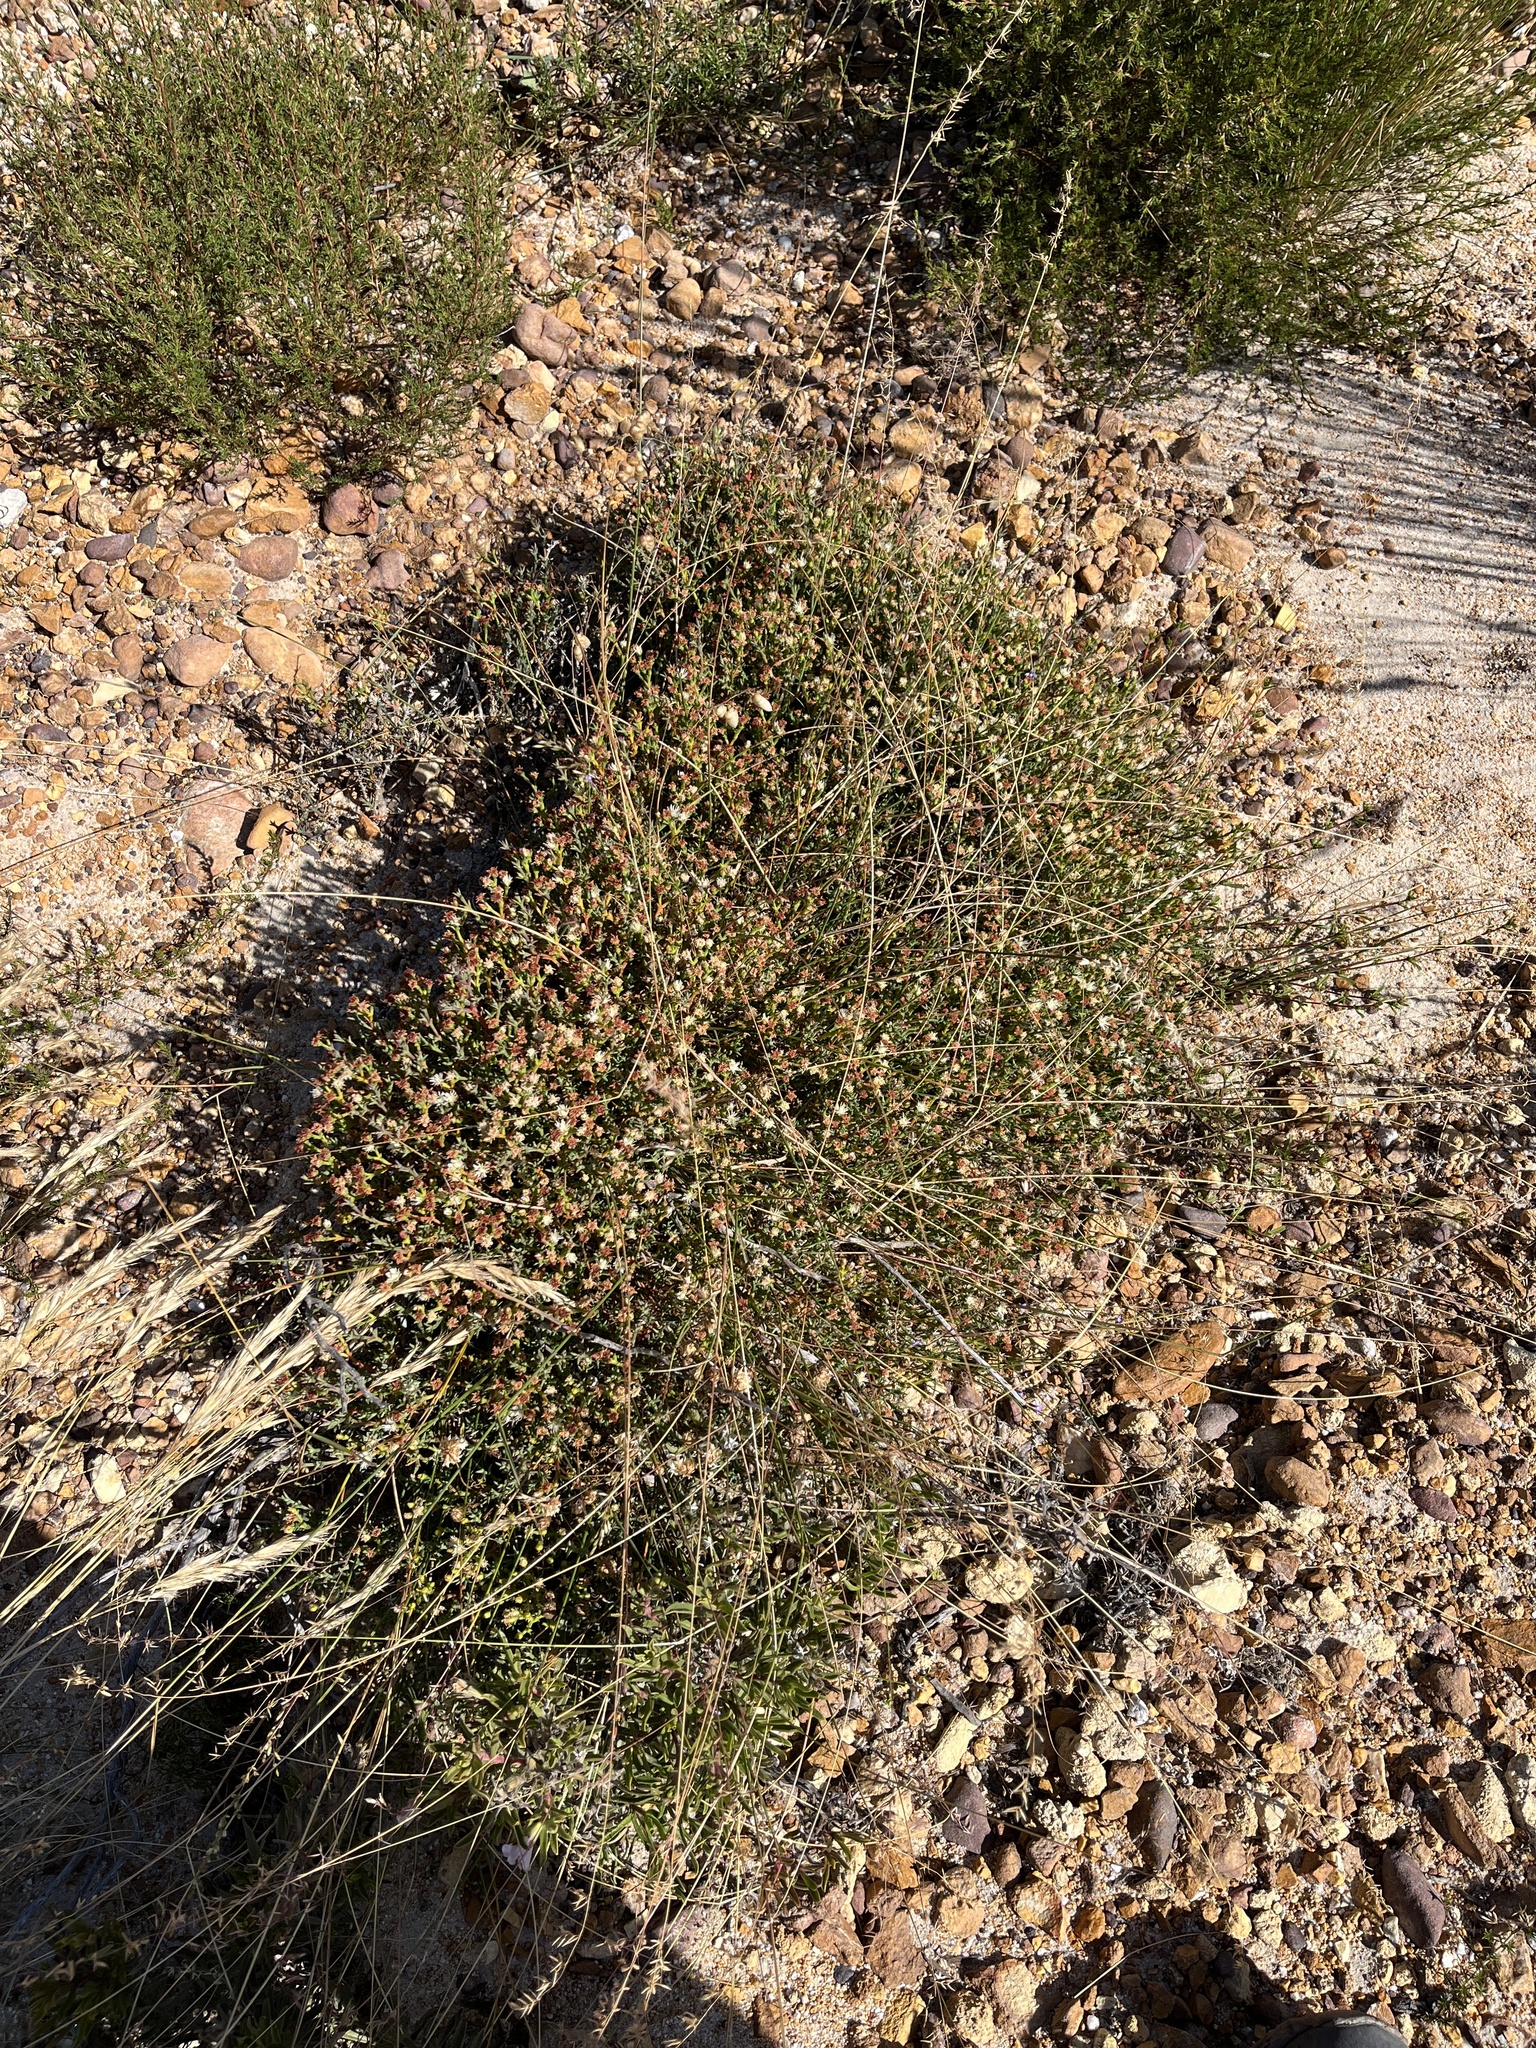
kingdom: Plantae
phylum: Tracheophyta
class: Magnoliopsida
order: Caryophyllales
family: Aizoaceae
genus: Ruschia
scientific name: Ruschia tenella
